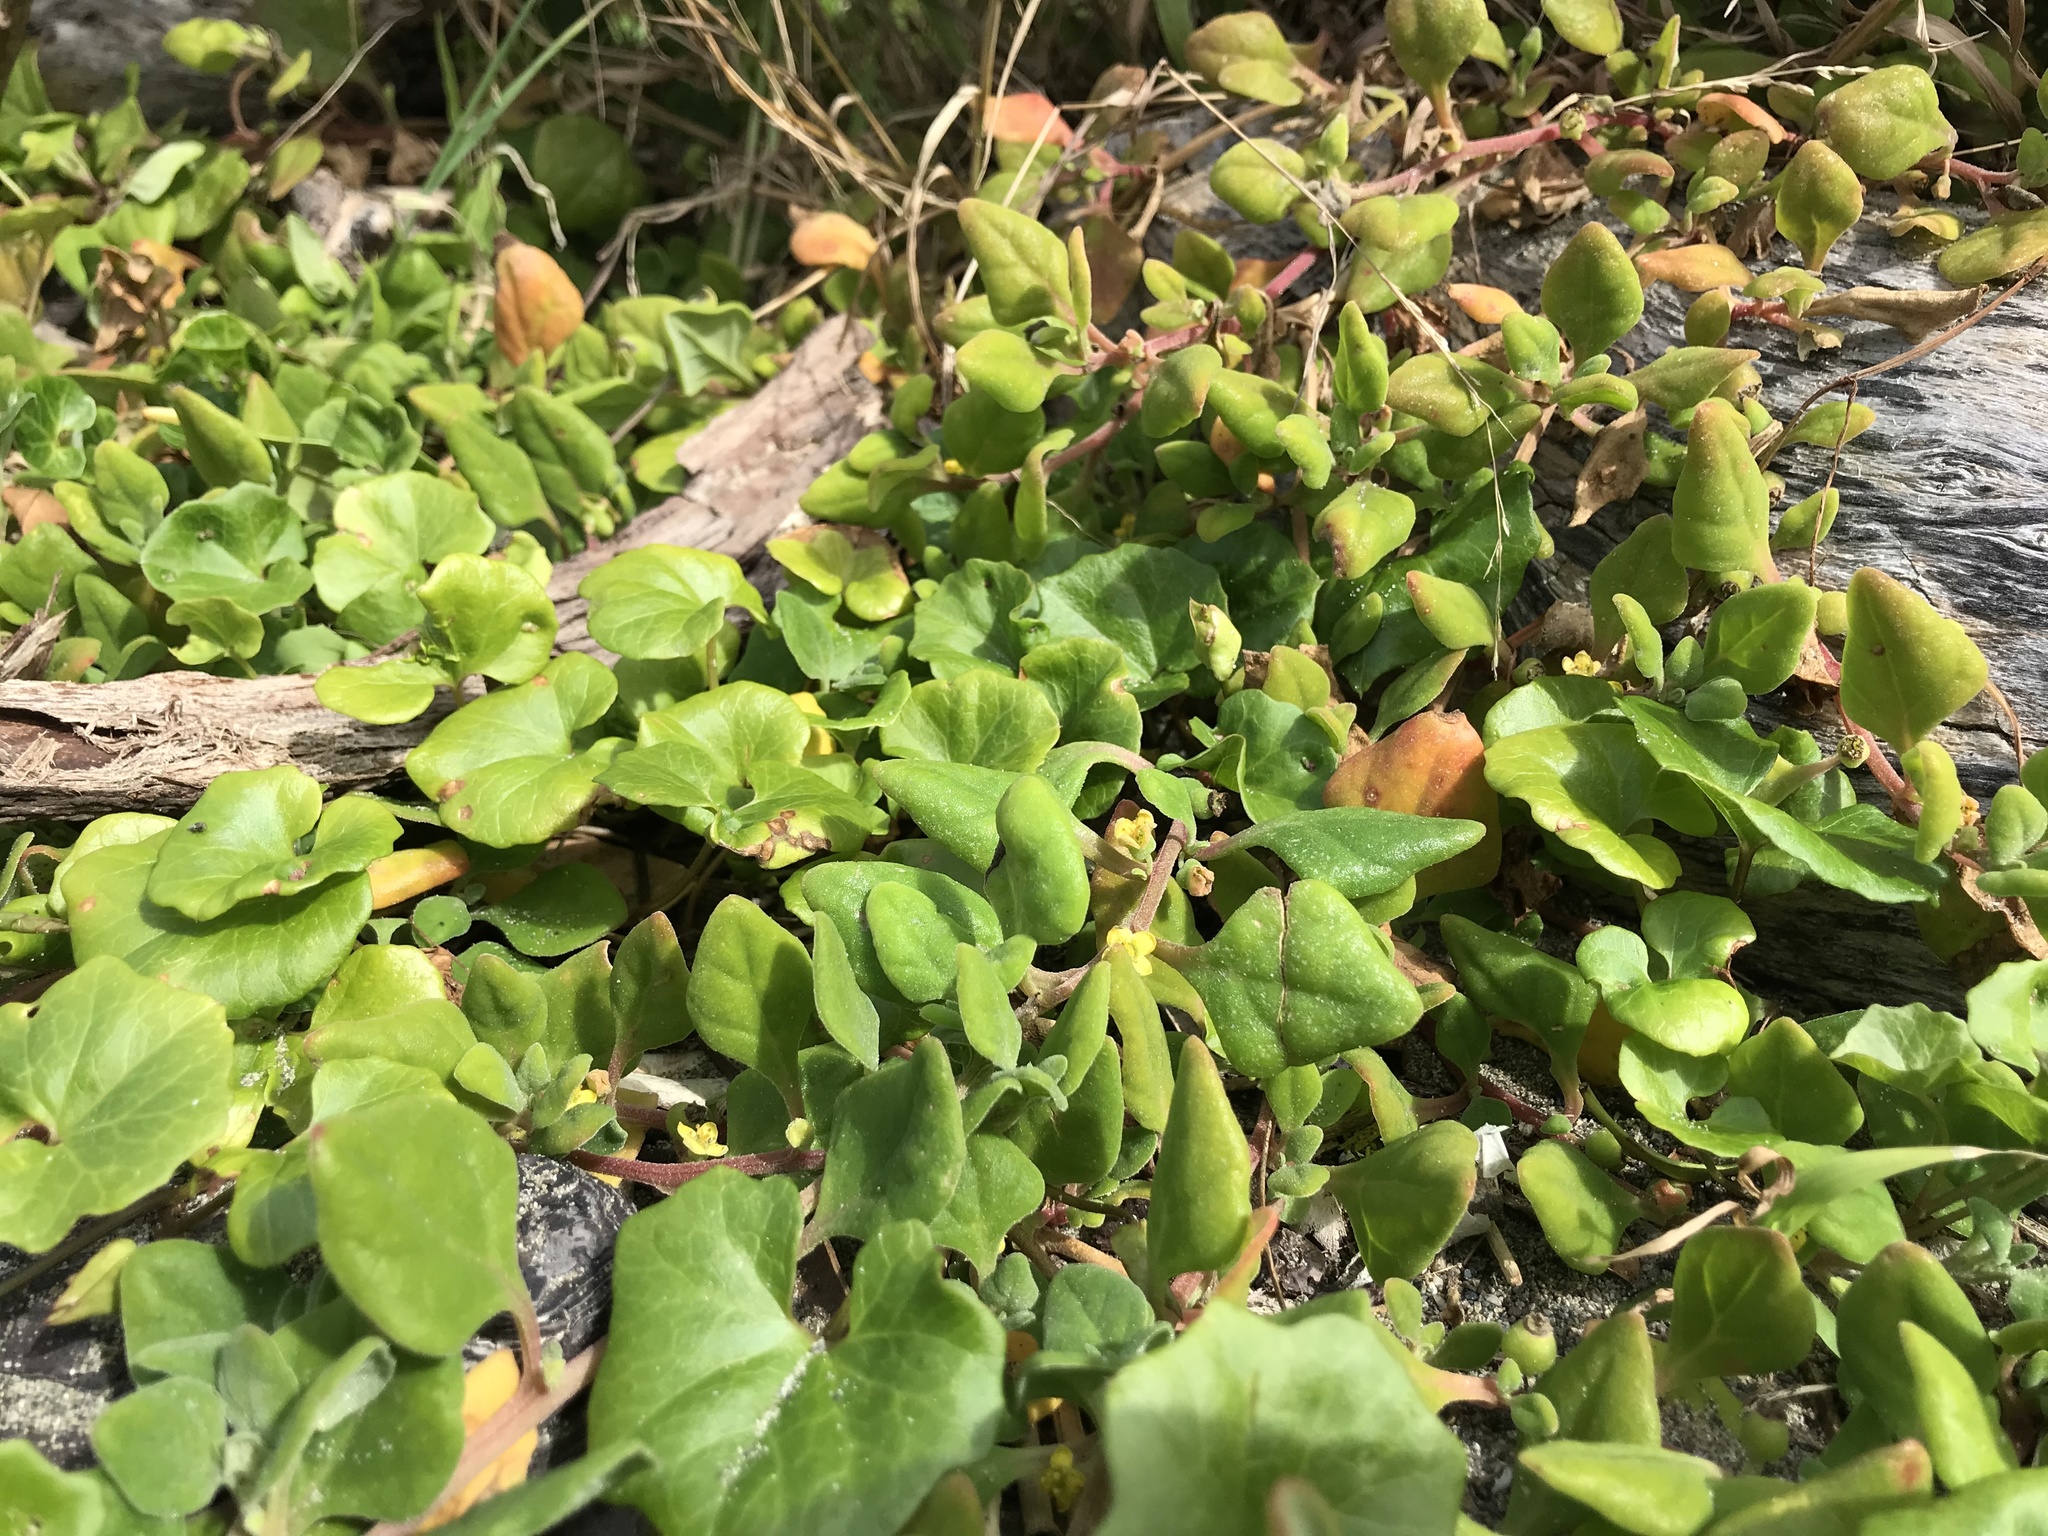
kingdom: Plantae
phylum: Tracheophyta
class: Magnoliopsida
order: Caryophyllales
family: Aizoaceae
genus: Tetragonia
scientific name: Tetragonia implexicoma
